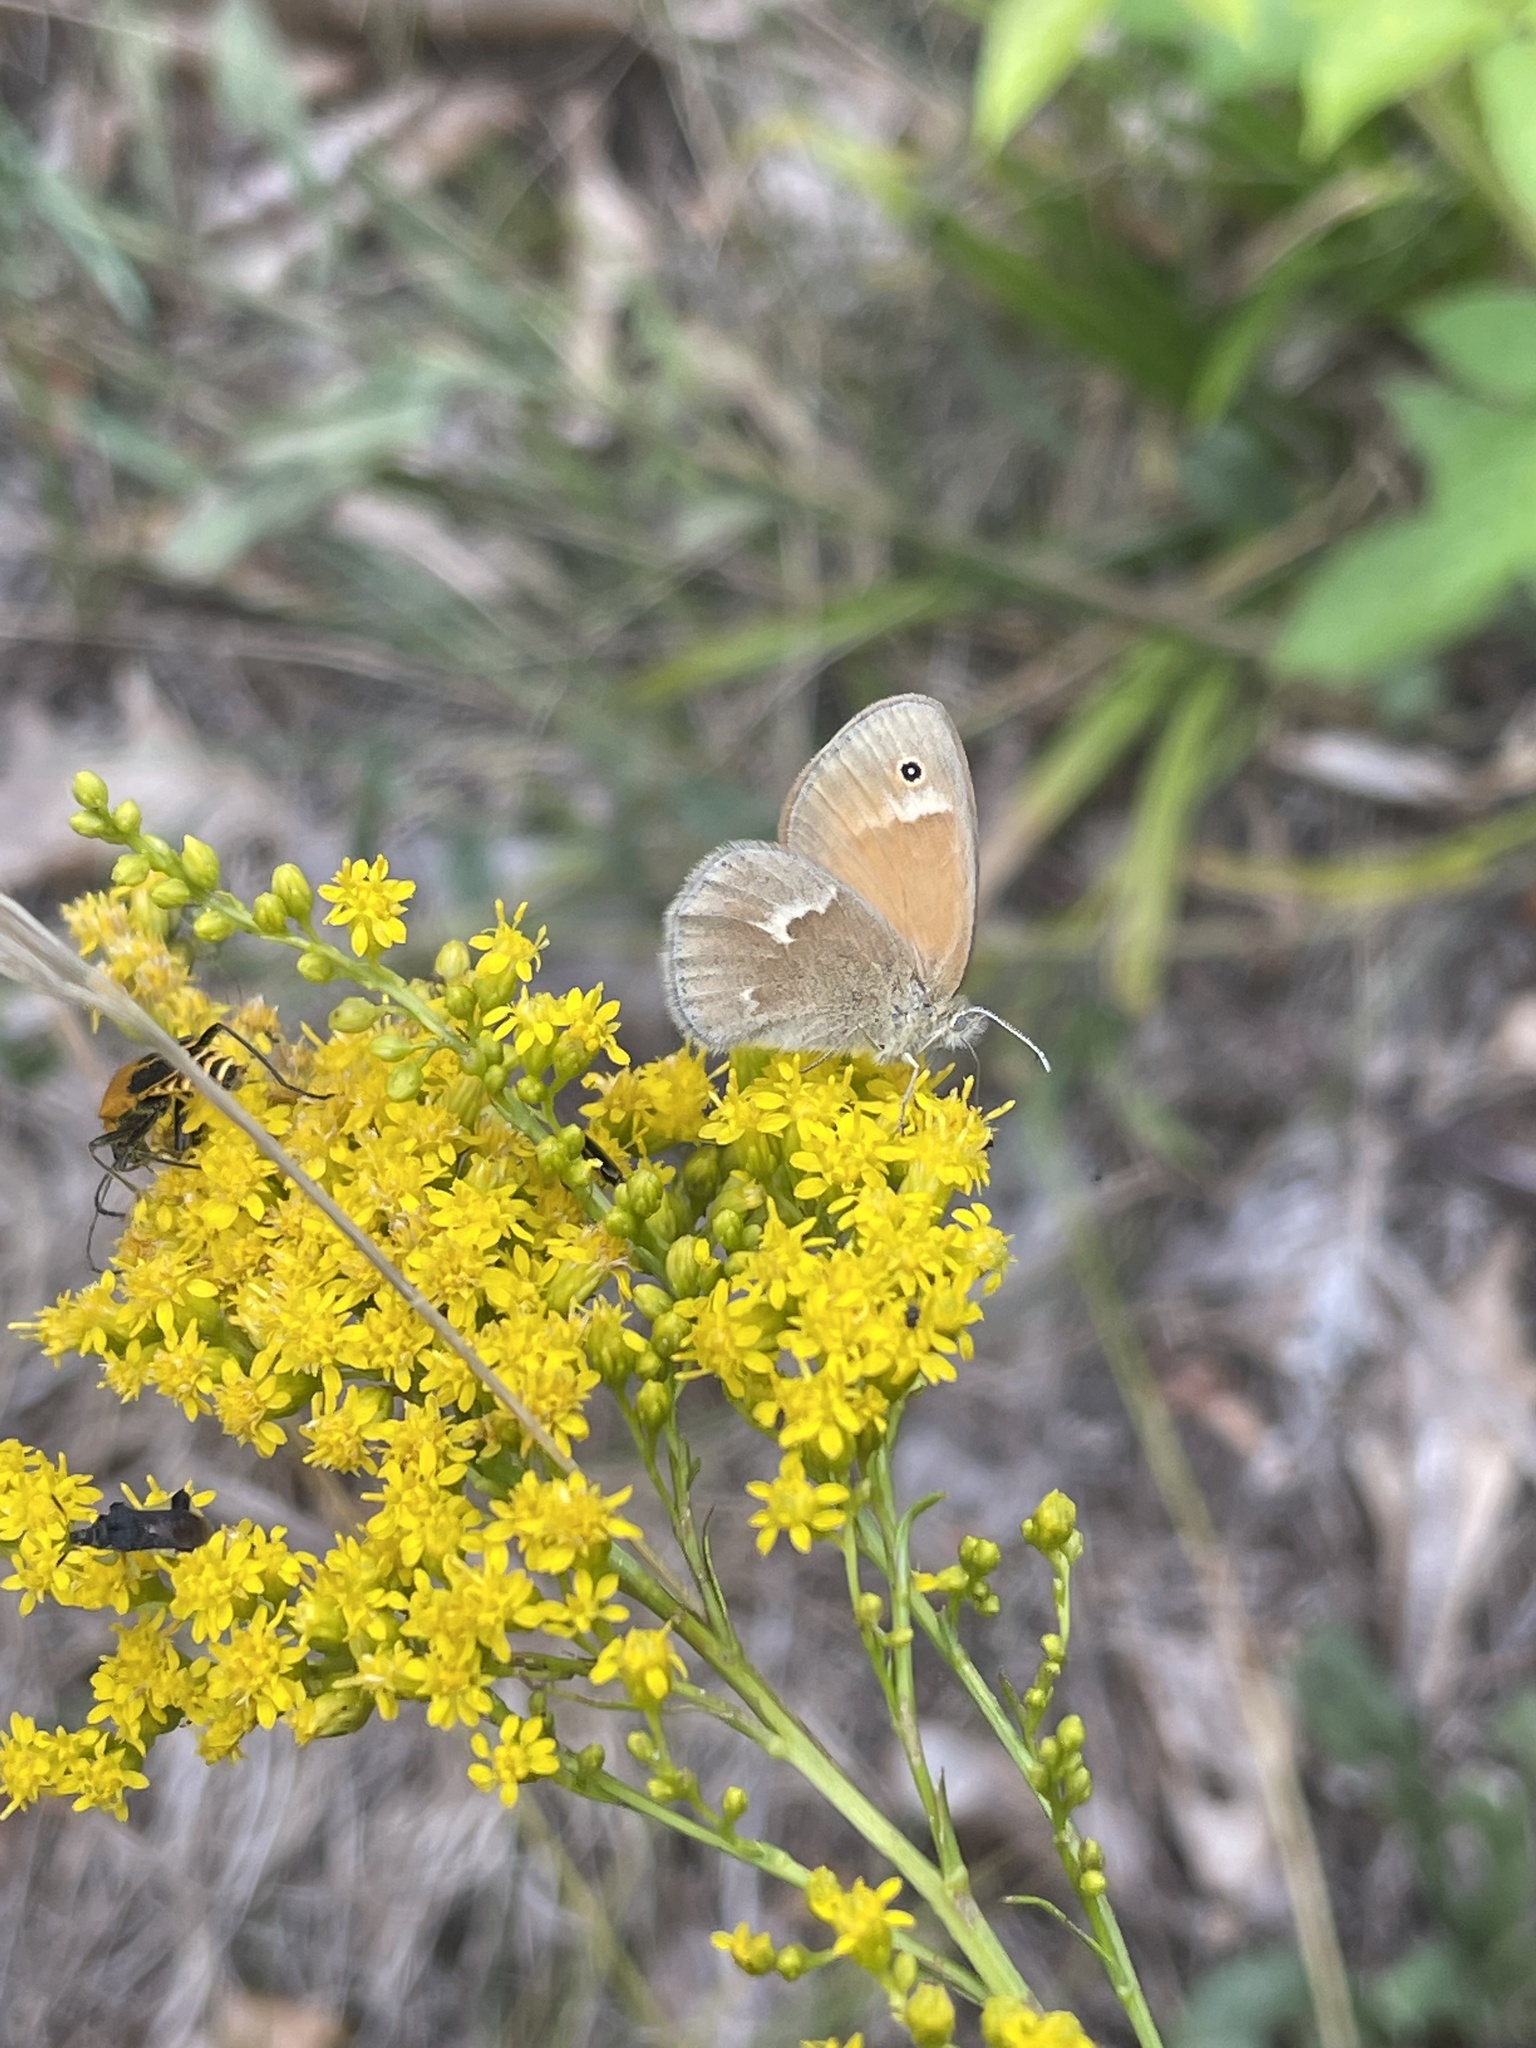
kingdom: Animalia
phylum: Arthropoda
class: Insecta
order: Lepidoptera
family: Nymphalidae
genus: Coenonympha
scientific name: Coenonympha california
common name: Common ringlet
